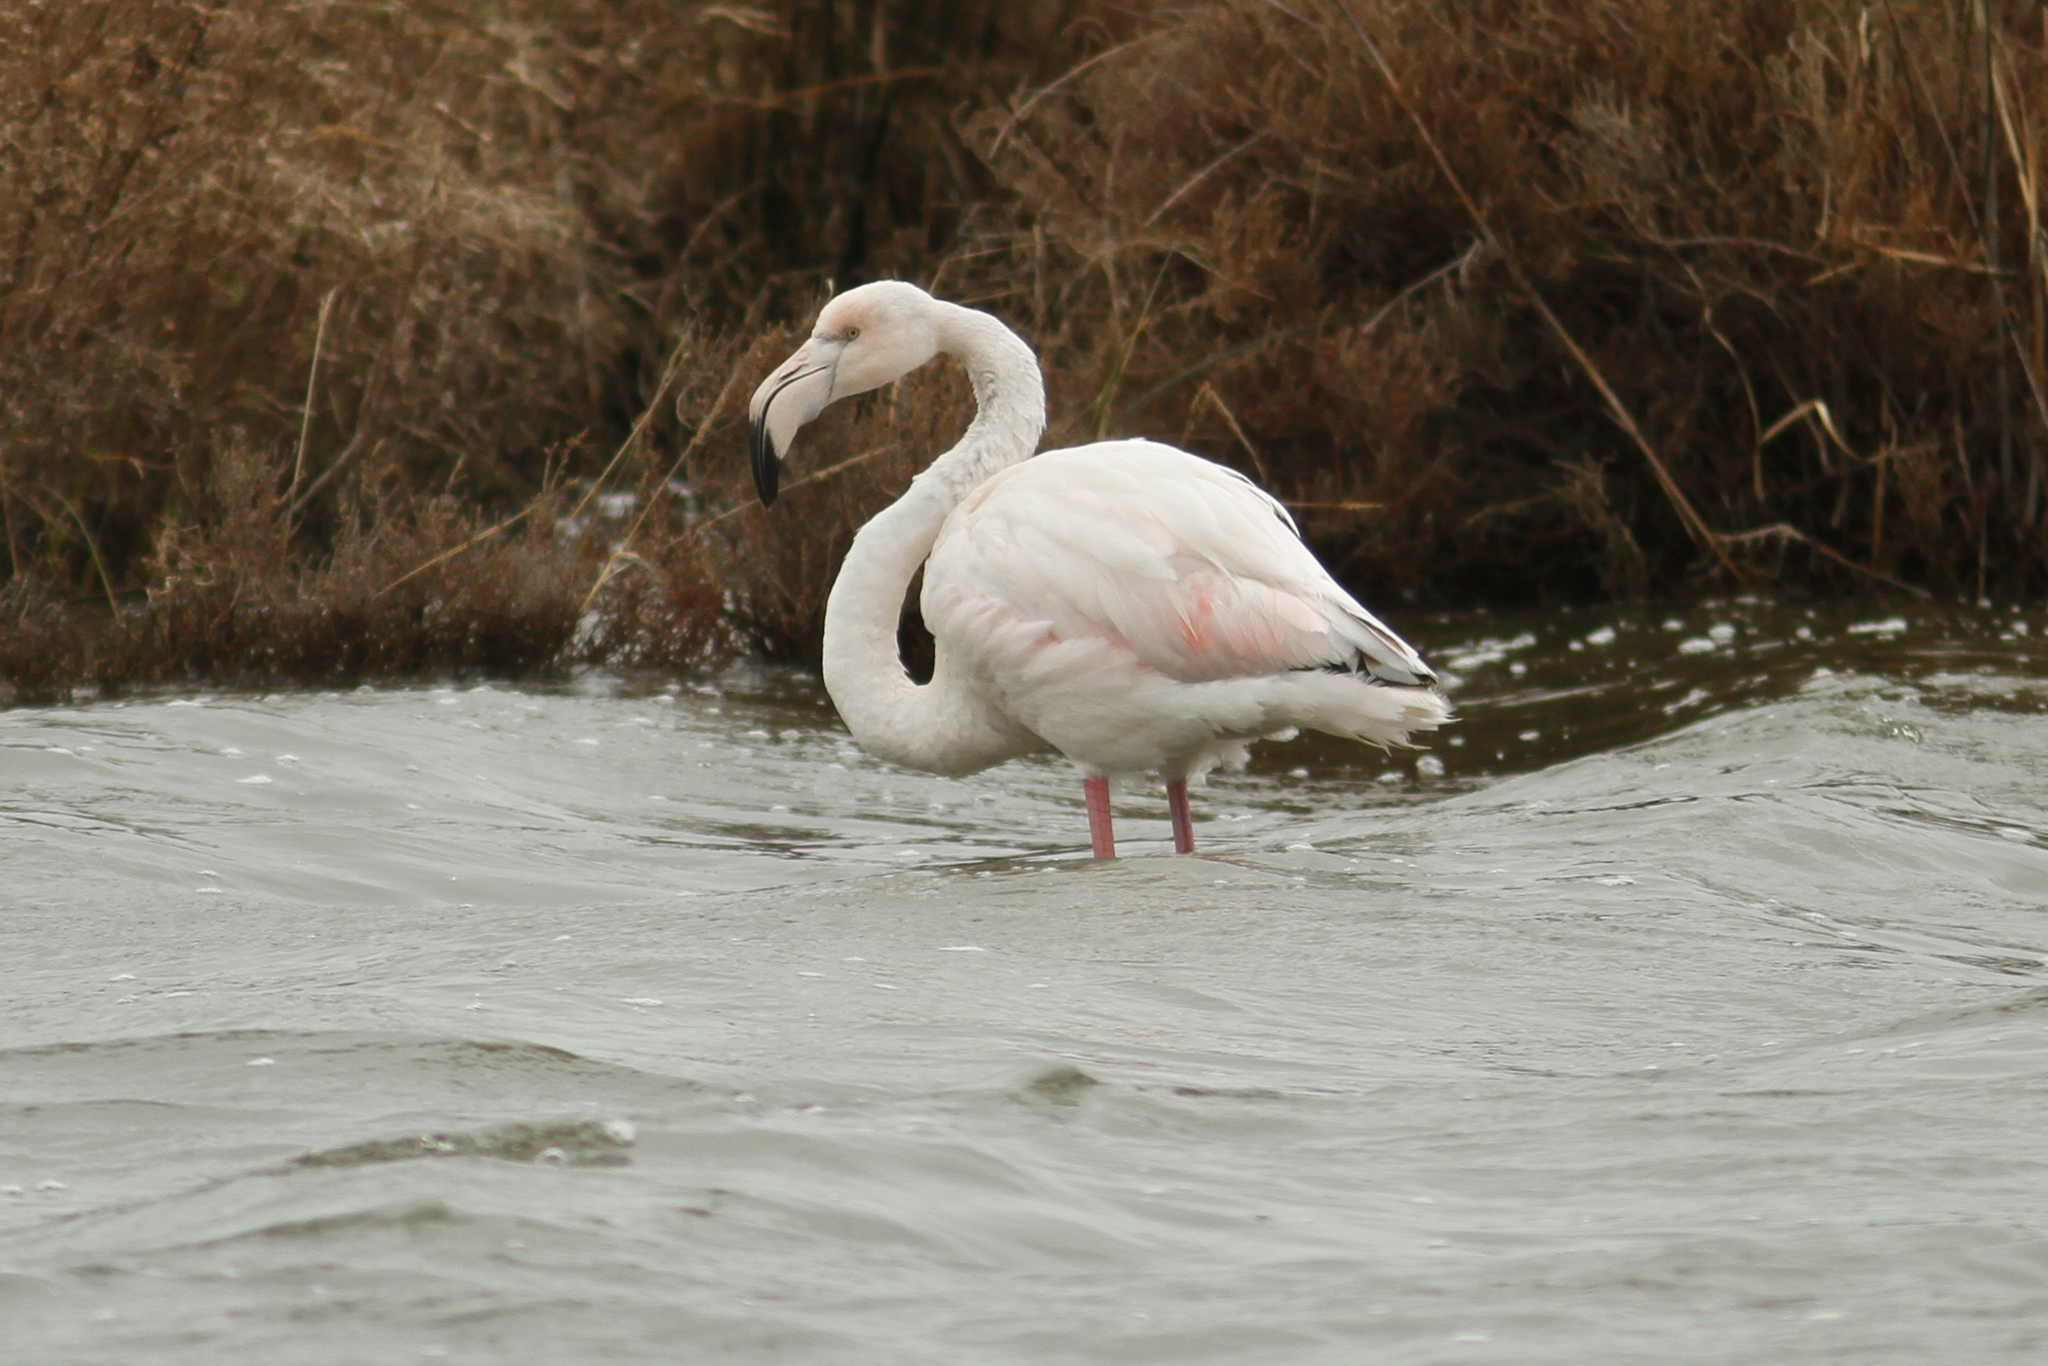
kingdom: Animalia
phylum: Chordata
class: Aves
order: Phoenicopteriformes
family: Phoenicopteridae
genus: Phoenicopterus
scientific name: Phoenicopterus roseus
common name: Greater flamingo
